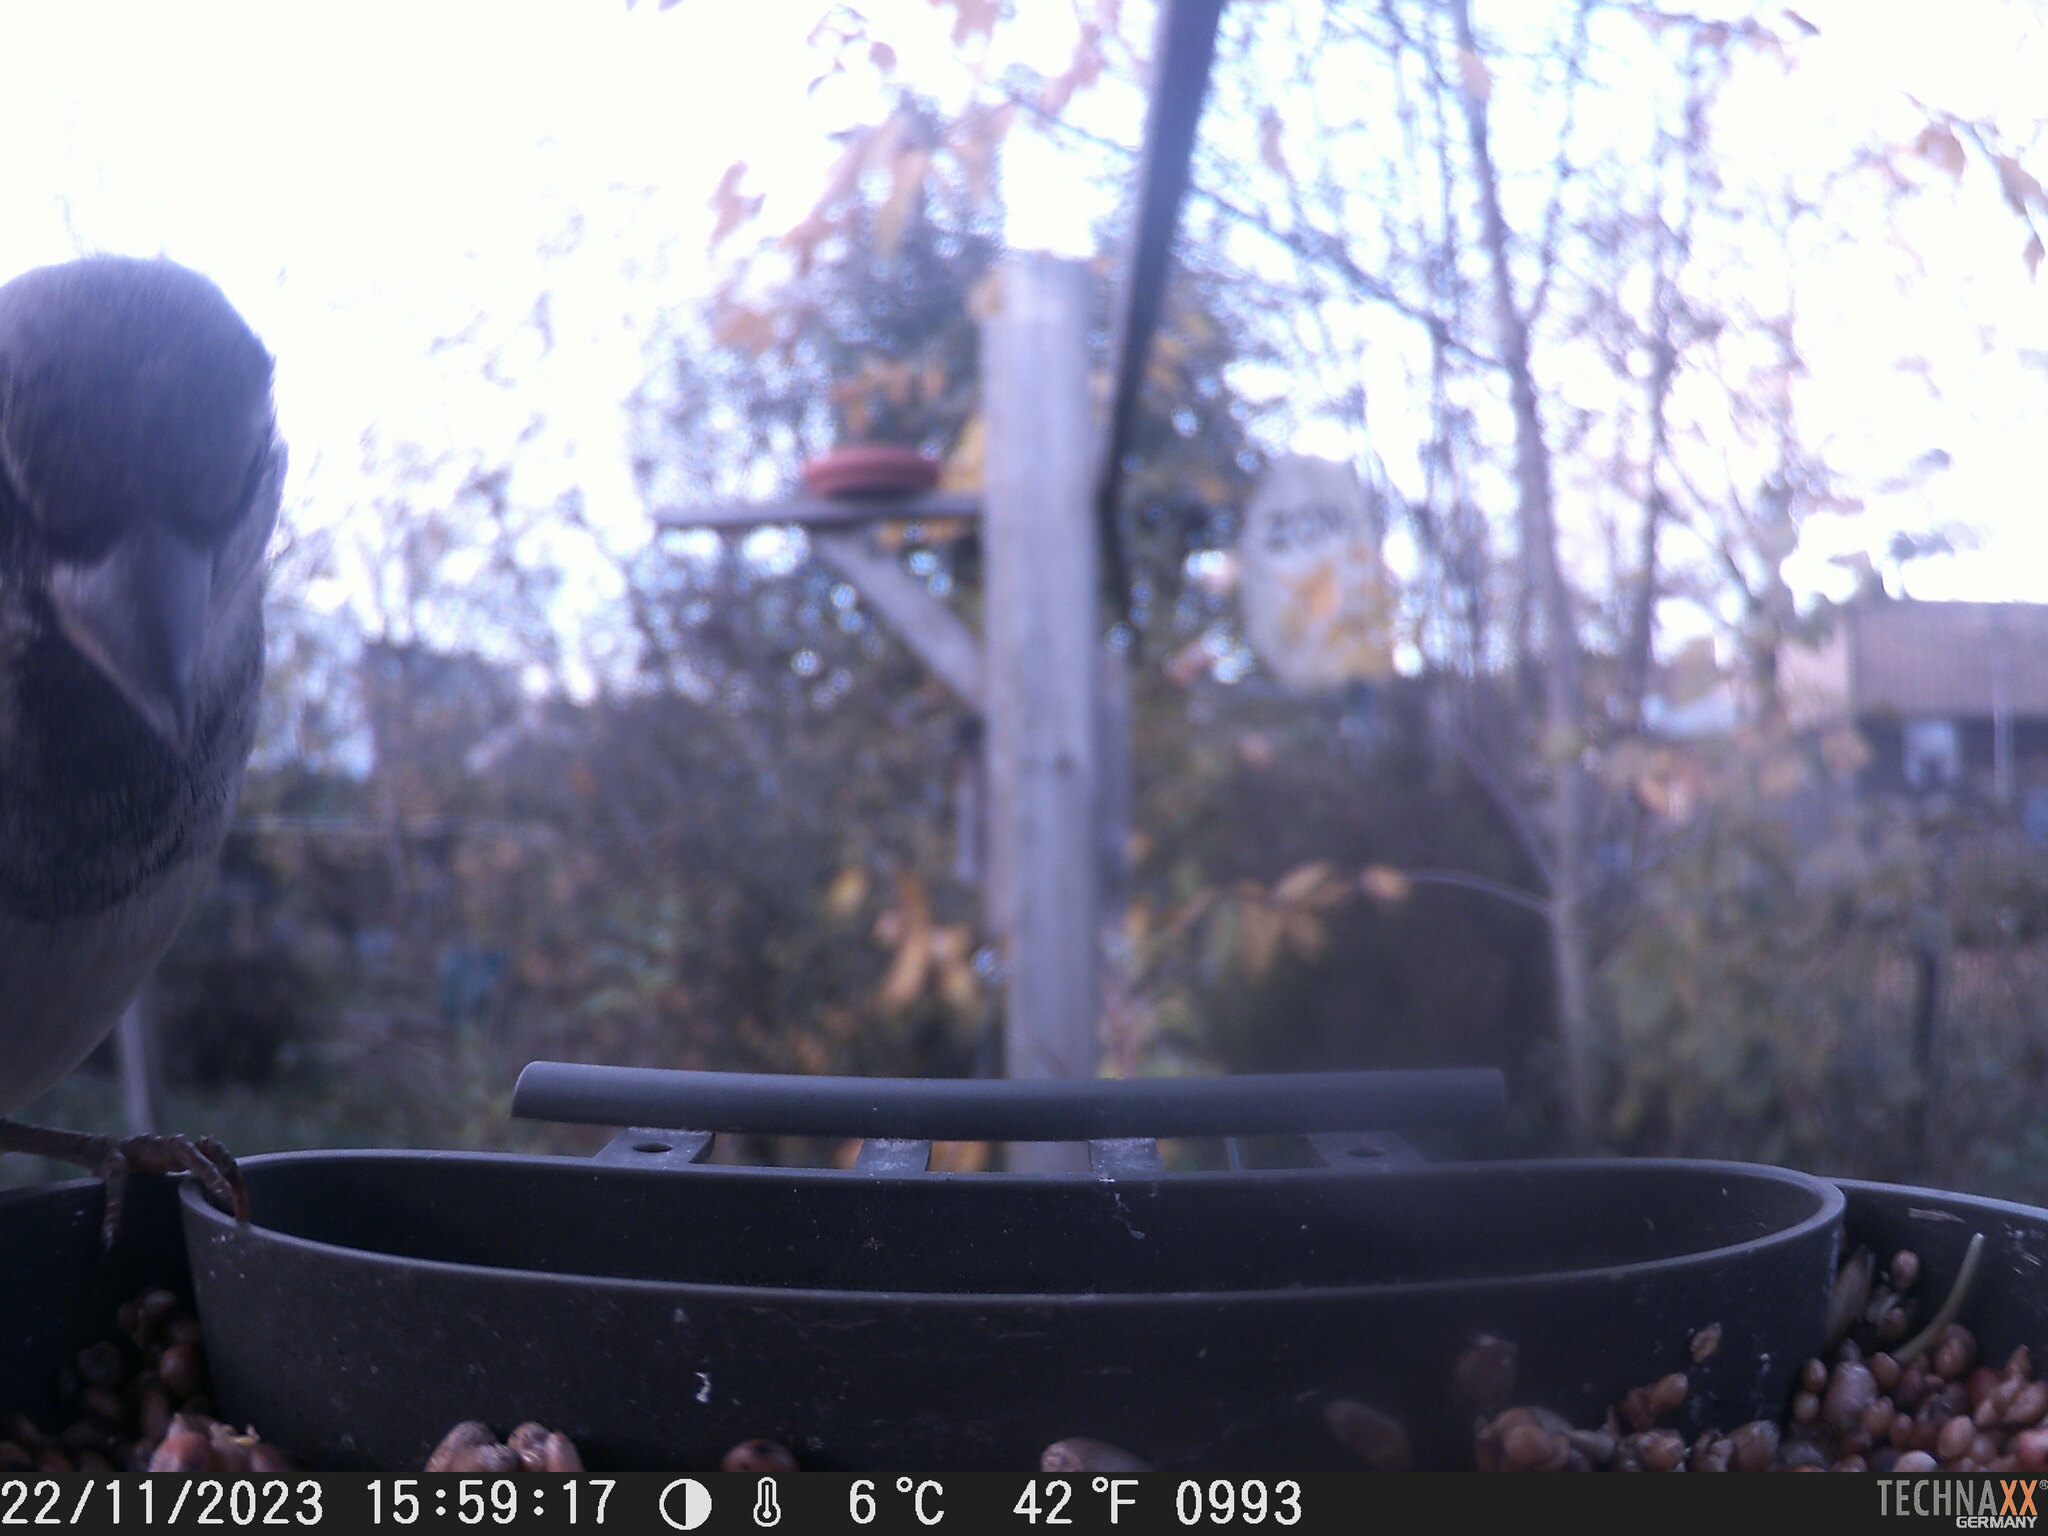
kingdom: Animalia
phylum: Chordata
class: Aves
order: Passeriformes
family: Passeridae
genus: Passer
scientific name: Passer domesticus
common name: House sparrow
